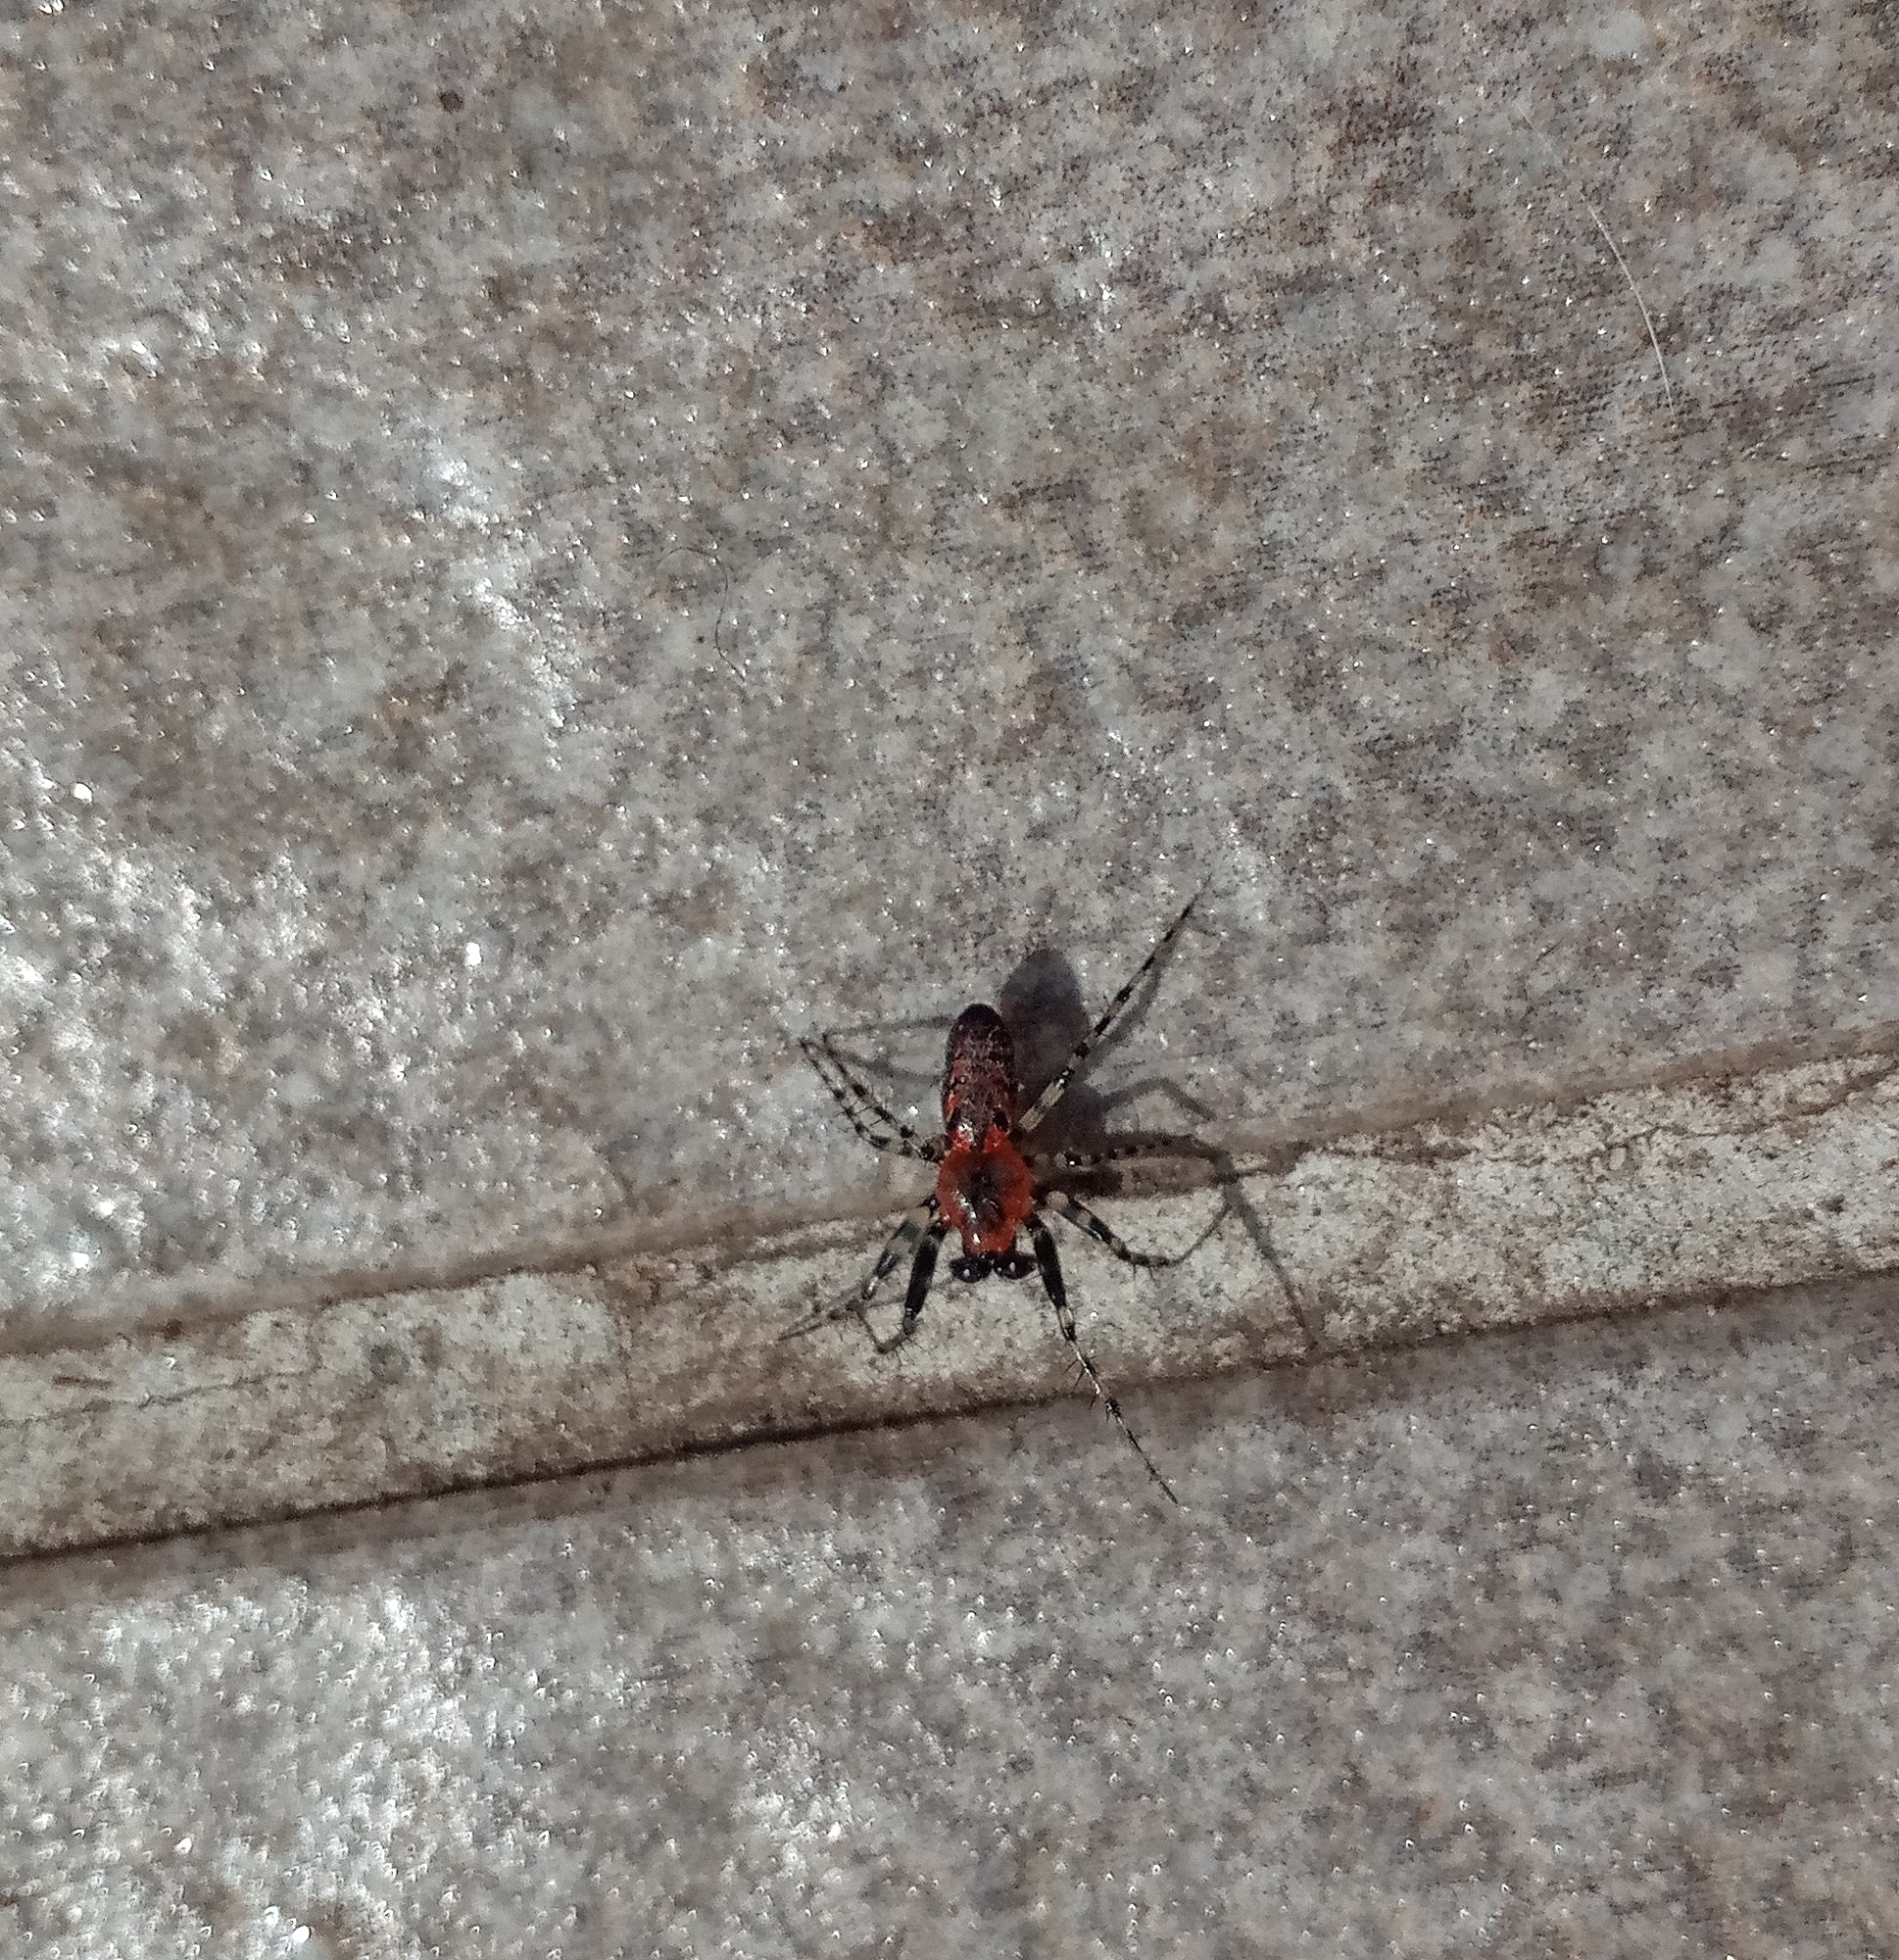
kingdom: Animalia
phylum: Arthropoda
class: Arachnida
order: Araneae
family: Araneidae
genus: Alpaida
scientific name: Alpaida gallardoi
